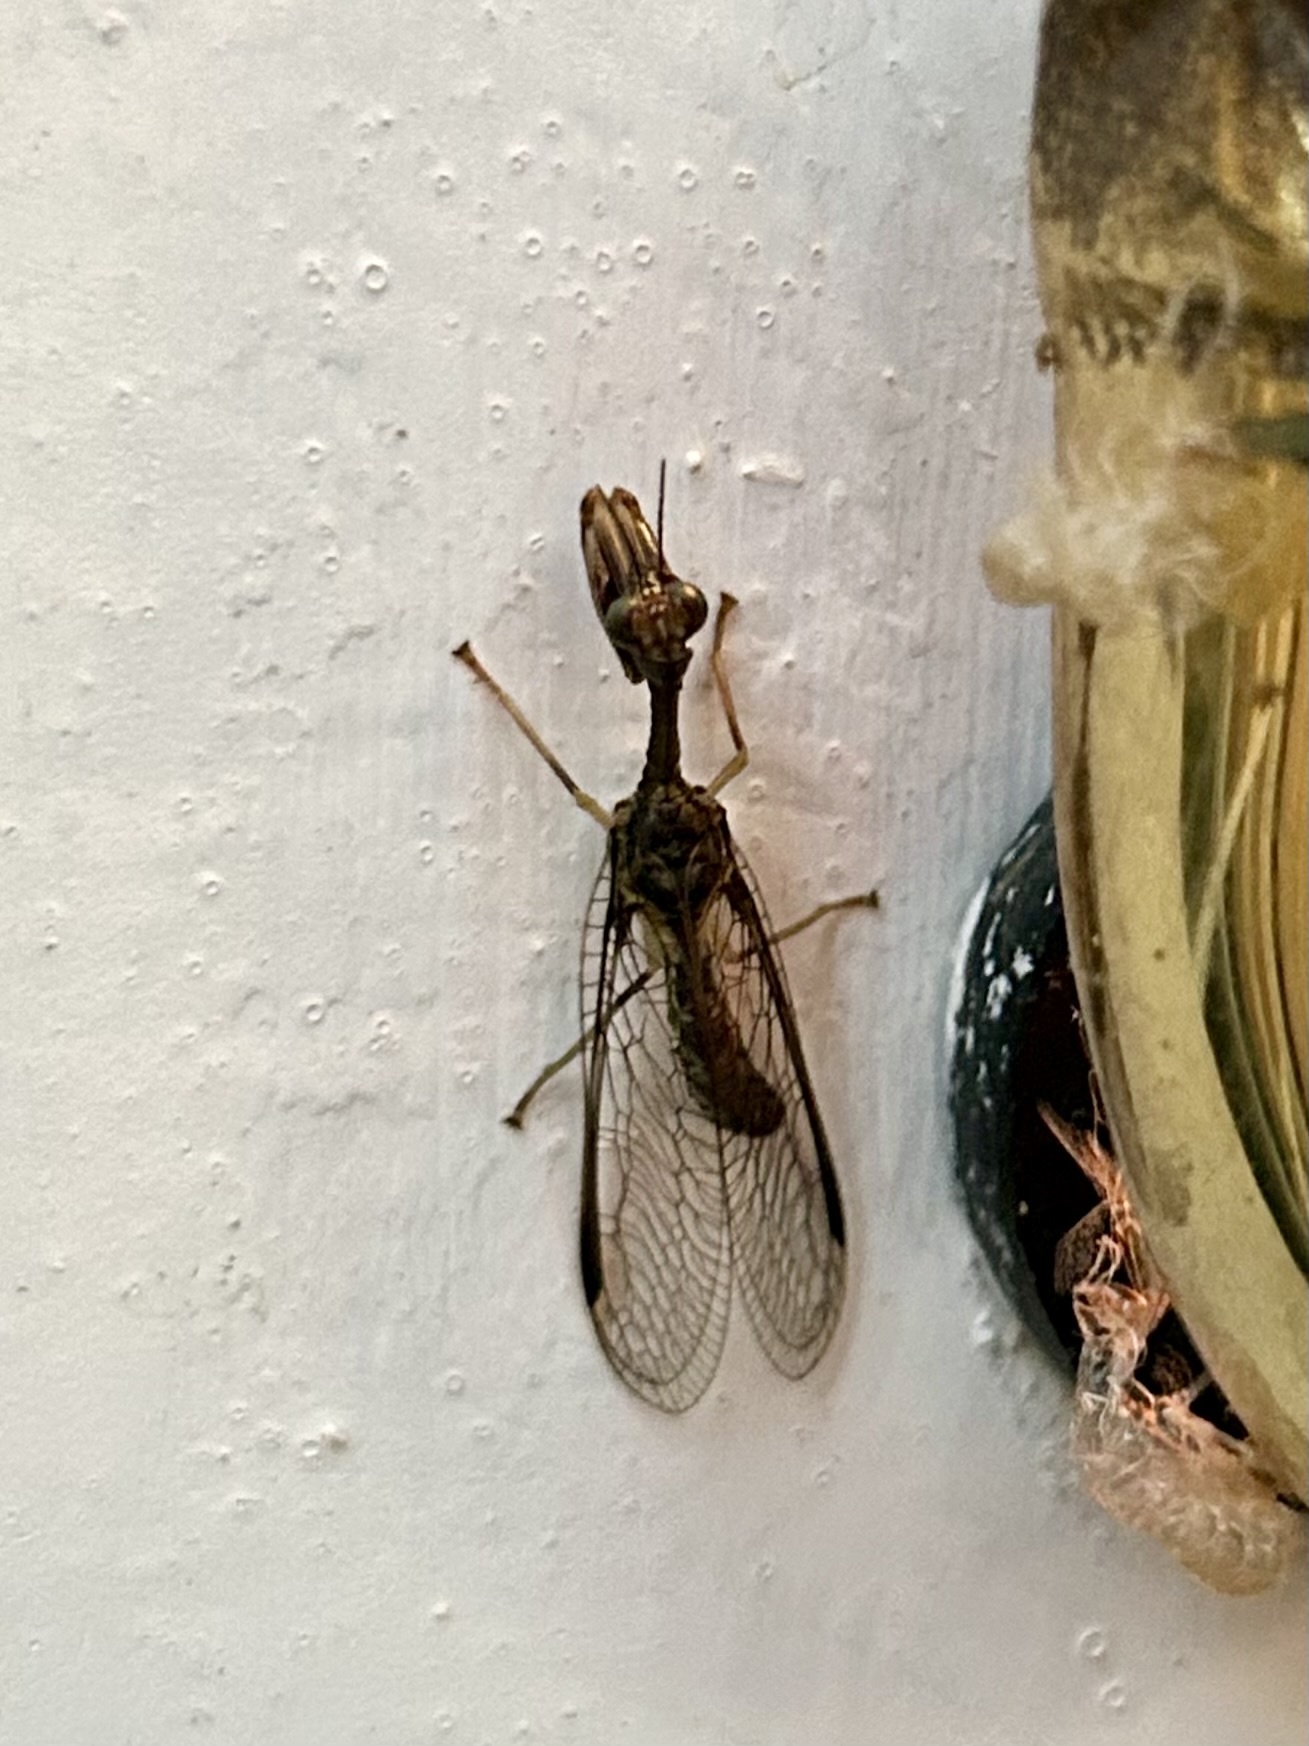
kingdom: Animalia
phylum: Arthropoda
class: Insecta
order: Neuroptera
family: Mantispidae
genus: Dicromantispa
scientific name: Dicromantispa sayi
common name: Say's mantidfly
